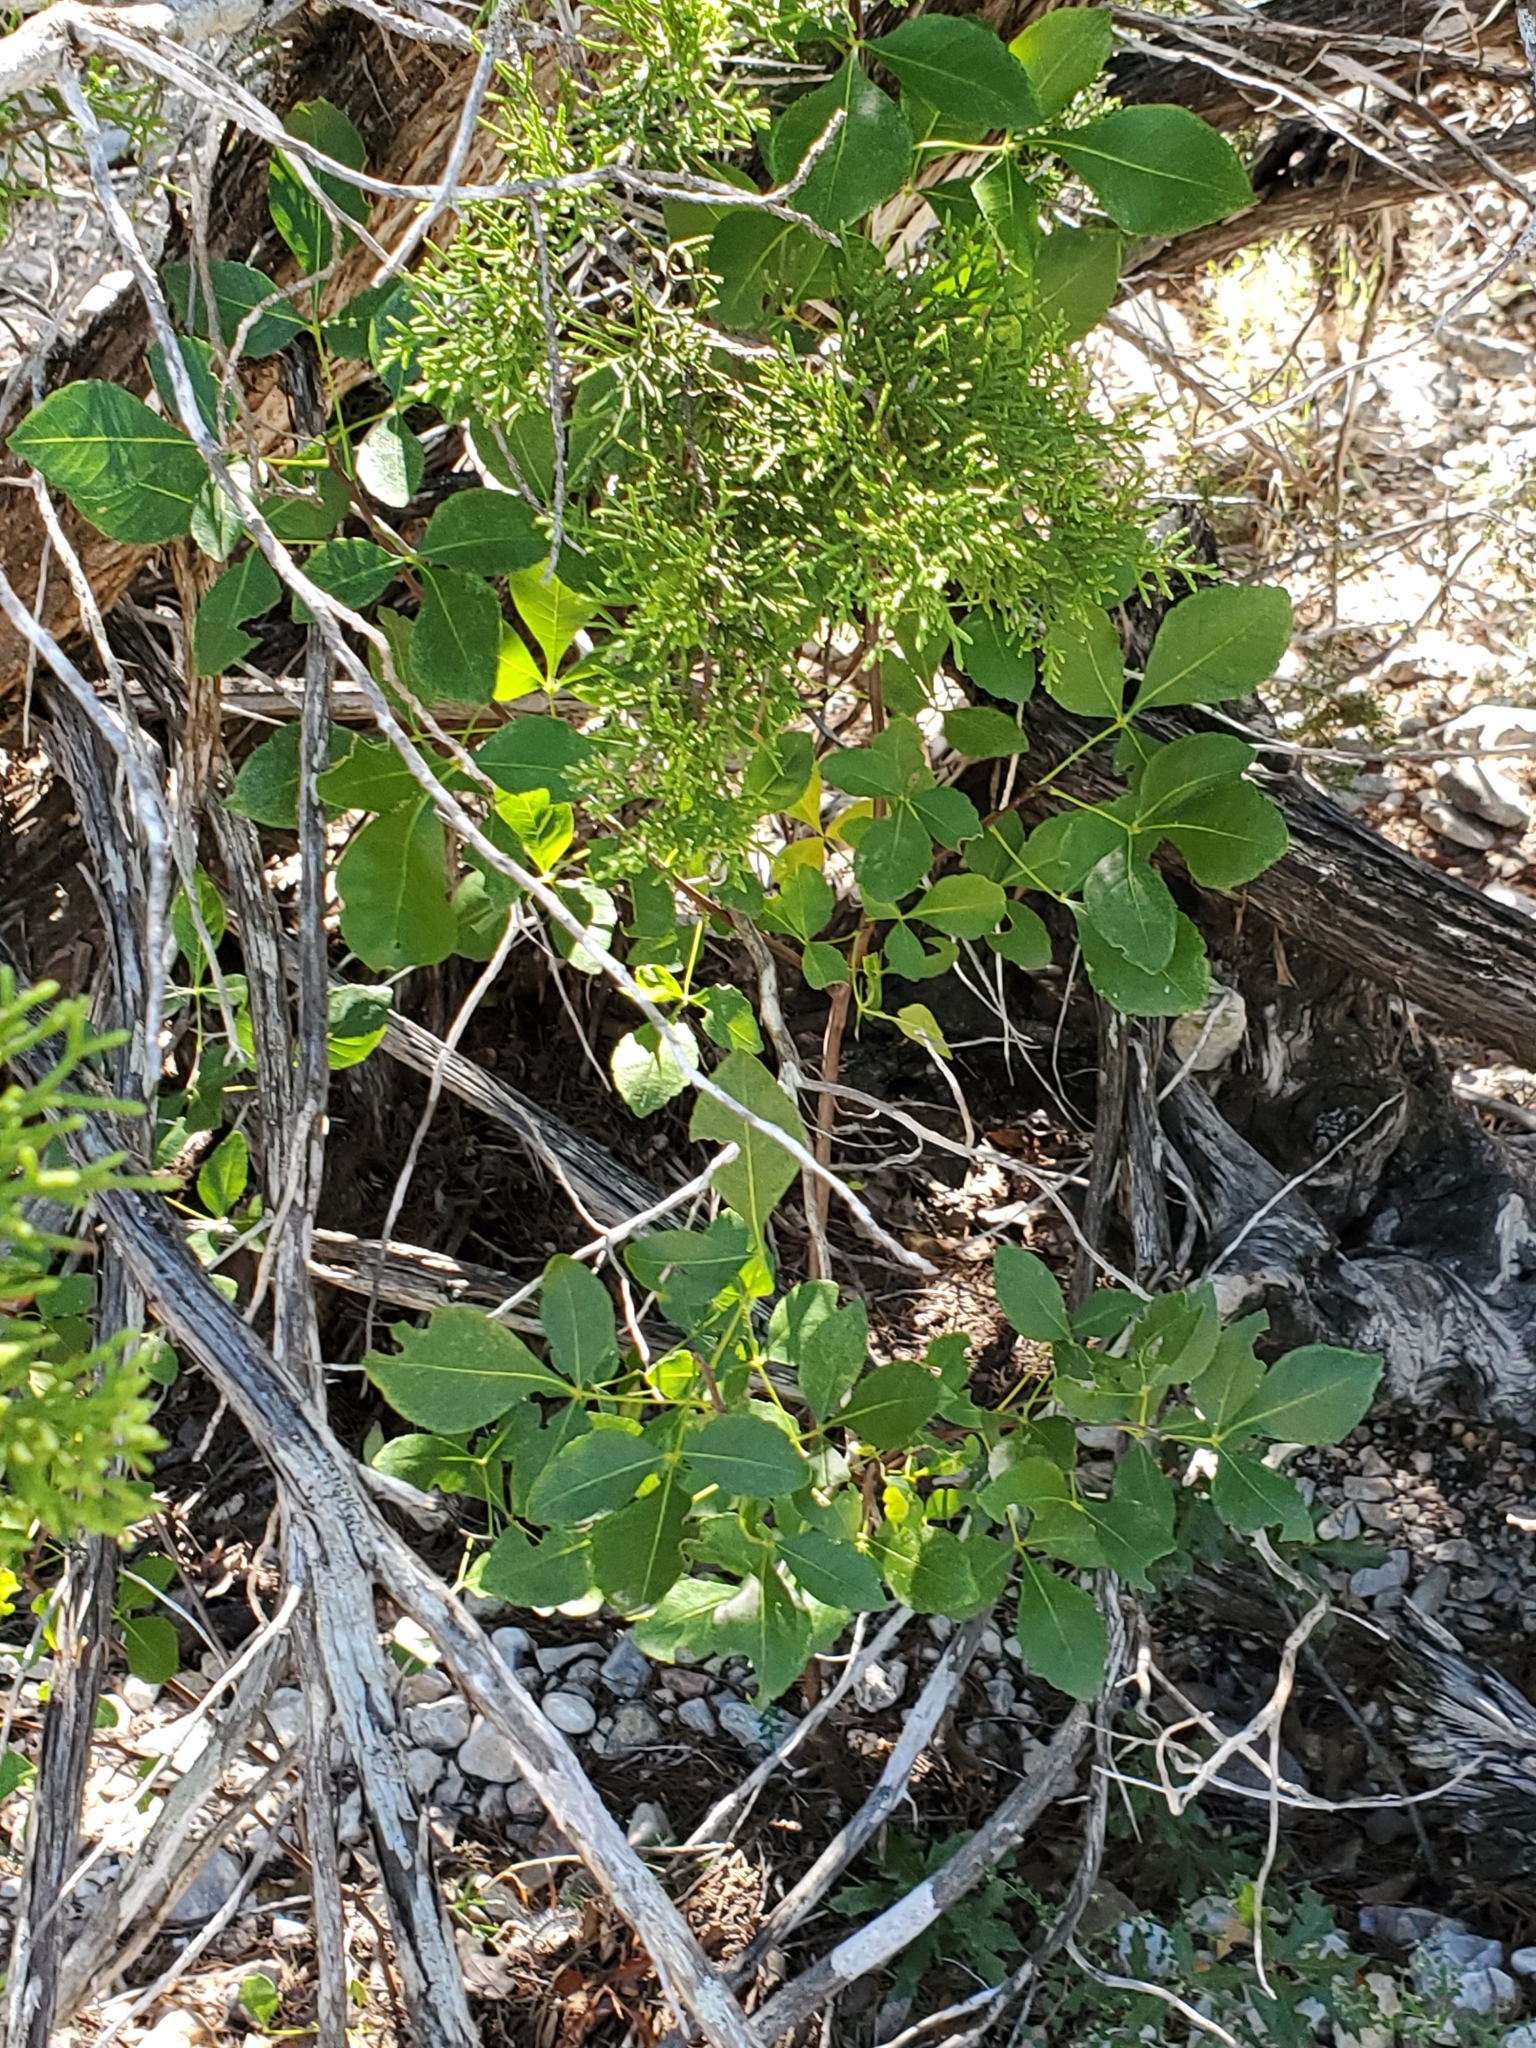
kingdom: Plantae
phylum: Tracheophyta
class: Magnoliopsida
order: Sapindales
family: Rutaceae
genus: Ptelea
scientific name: Ptelea trifoliata
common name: Common hop-tree
